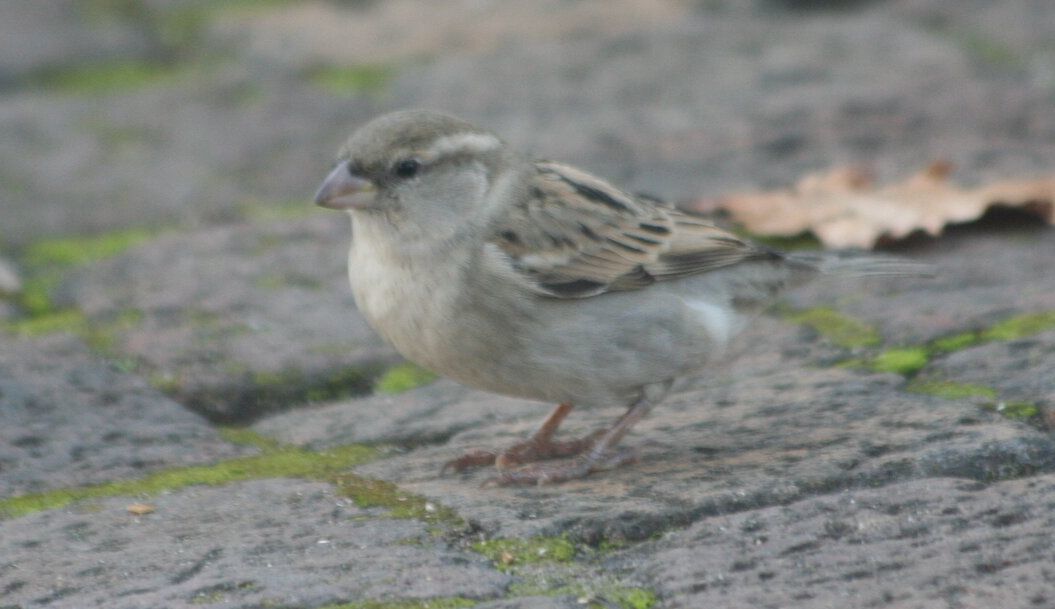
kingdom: Animalia
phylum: Chordata
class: Aves
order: Passeriformes
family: Passeridae
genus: Passer
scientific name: Passer domesticus
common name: House sparrow
